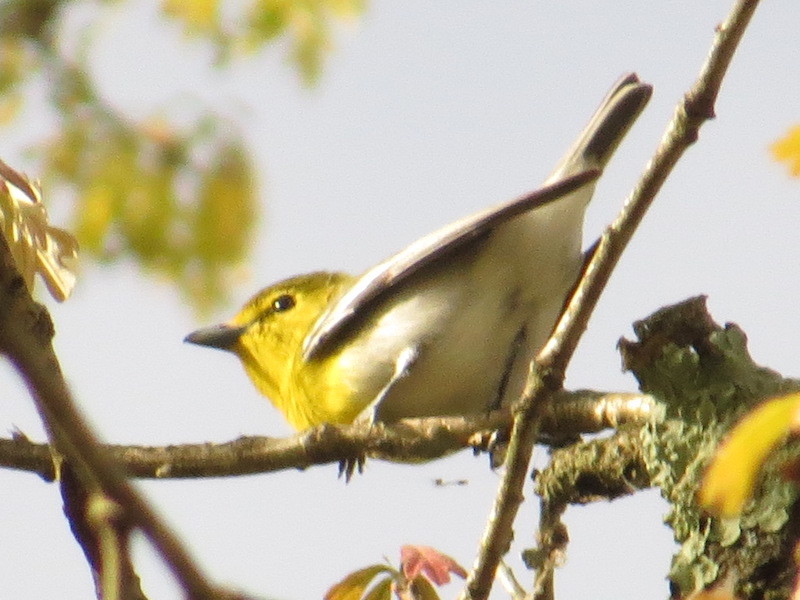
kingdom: Animalia
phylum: Chordata
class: Aves
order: Passeriformes
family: Vireonidae
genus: Vireo
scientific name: Vireo flavifrons
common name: Yellow-throated vireo
